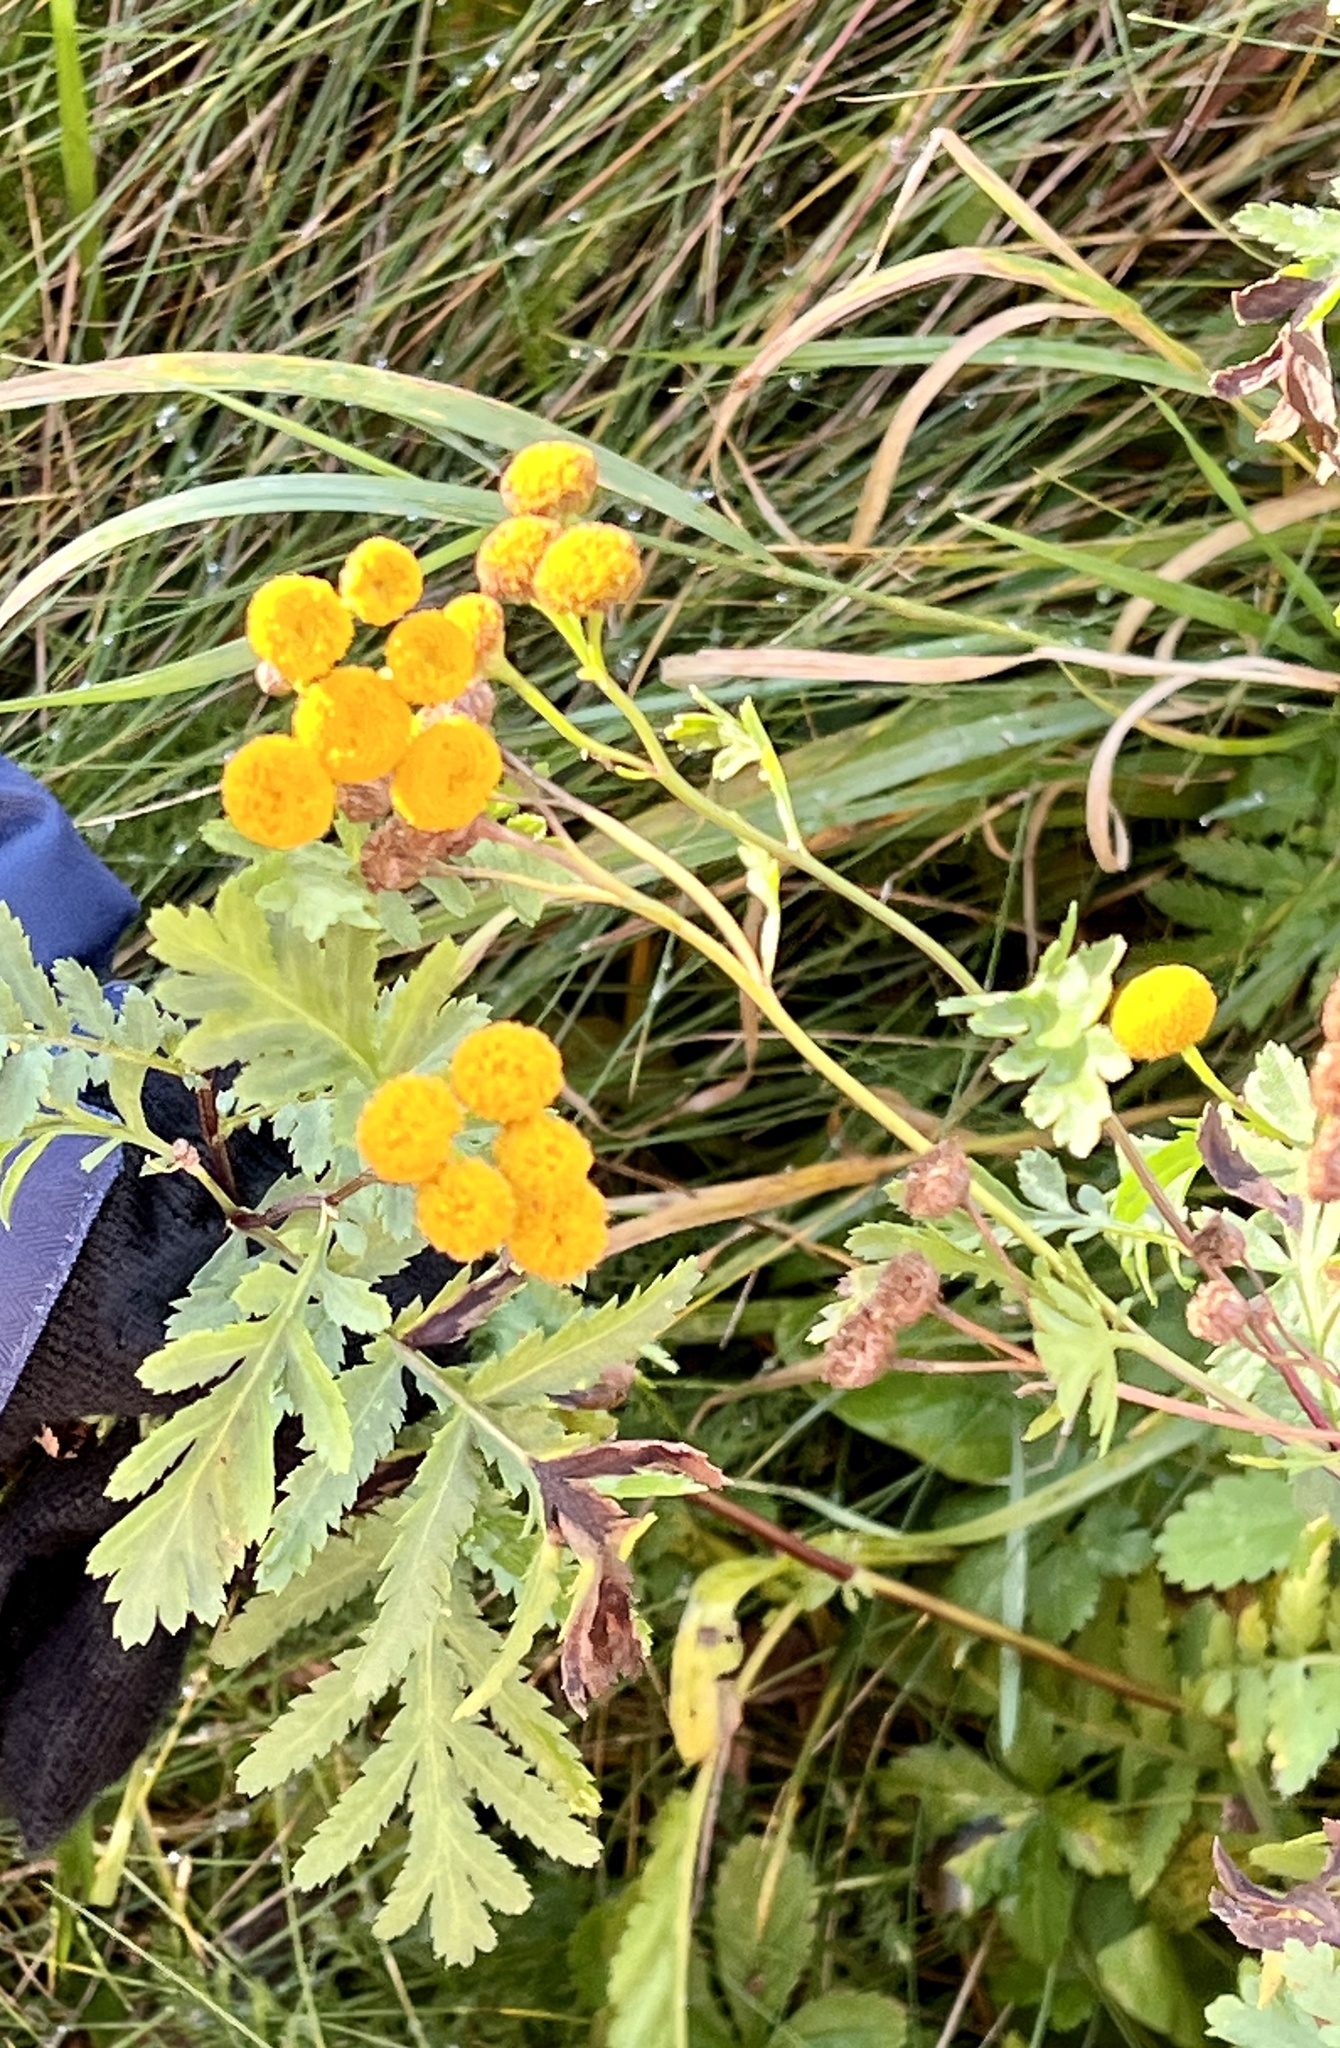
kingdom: Plantae
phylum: Tracheophyta
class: Magnoliopsida
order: Asterales
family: Asteraceae
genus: Tanacetum
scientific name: Tanacetum vulgare
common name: Common tansy
